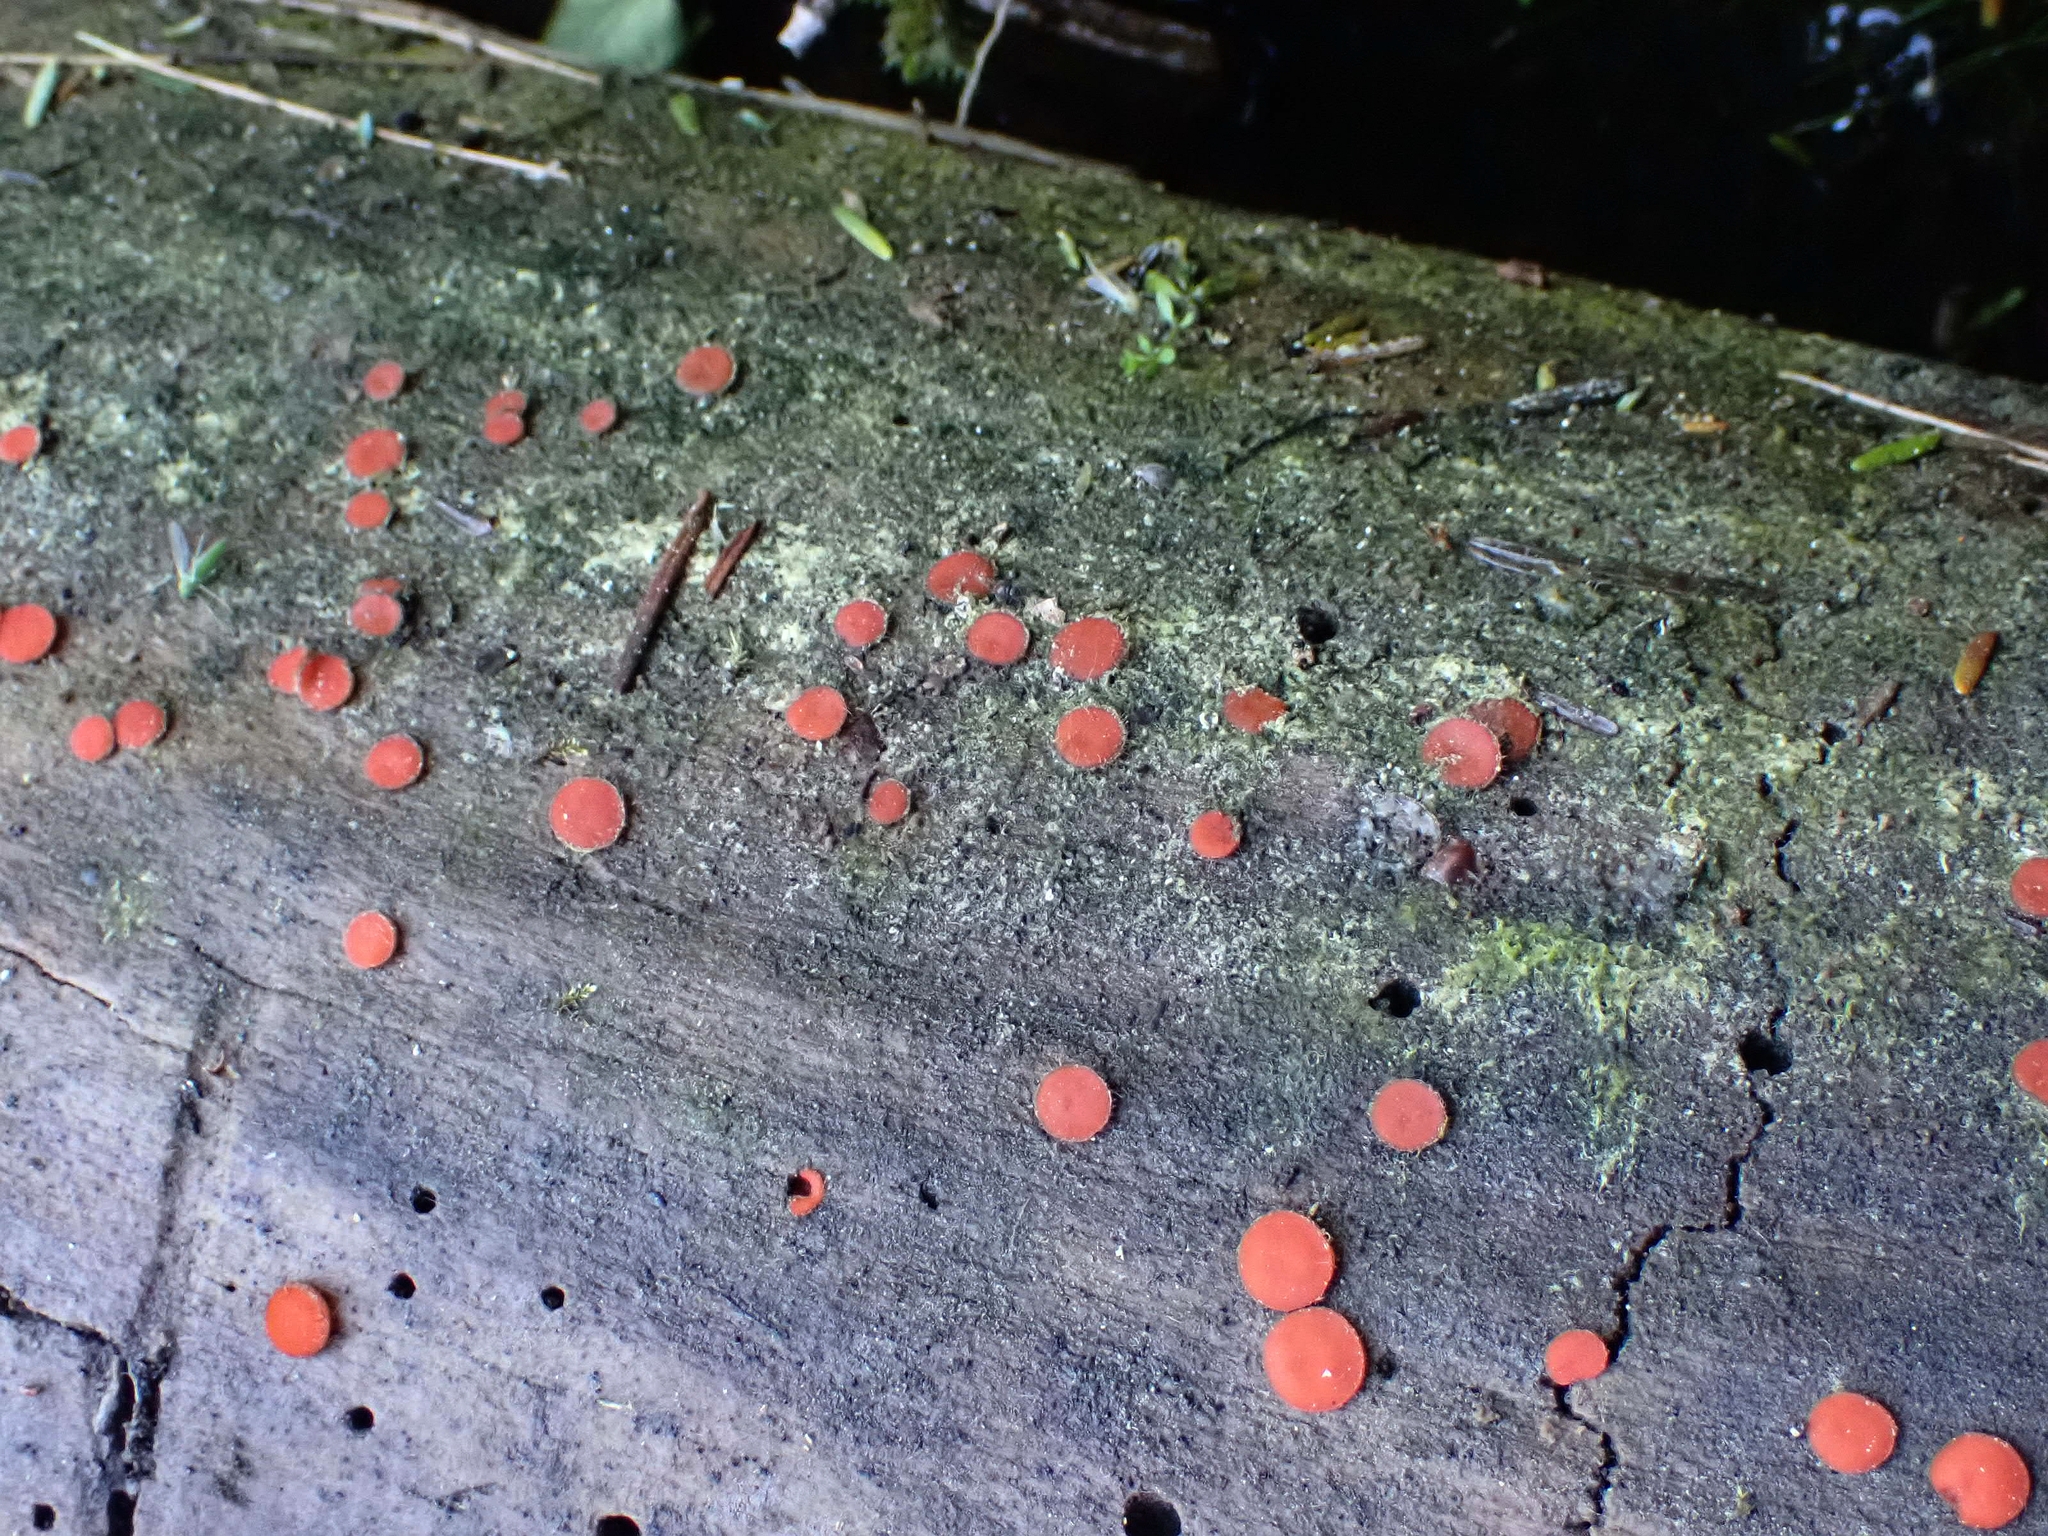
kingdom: Fungi
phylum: Ascomycota
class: Pezizomycetes
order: Pezizales
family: Pyronemataceae
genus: Scutellinia
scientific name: Scutellinia
